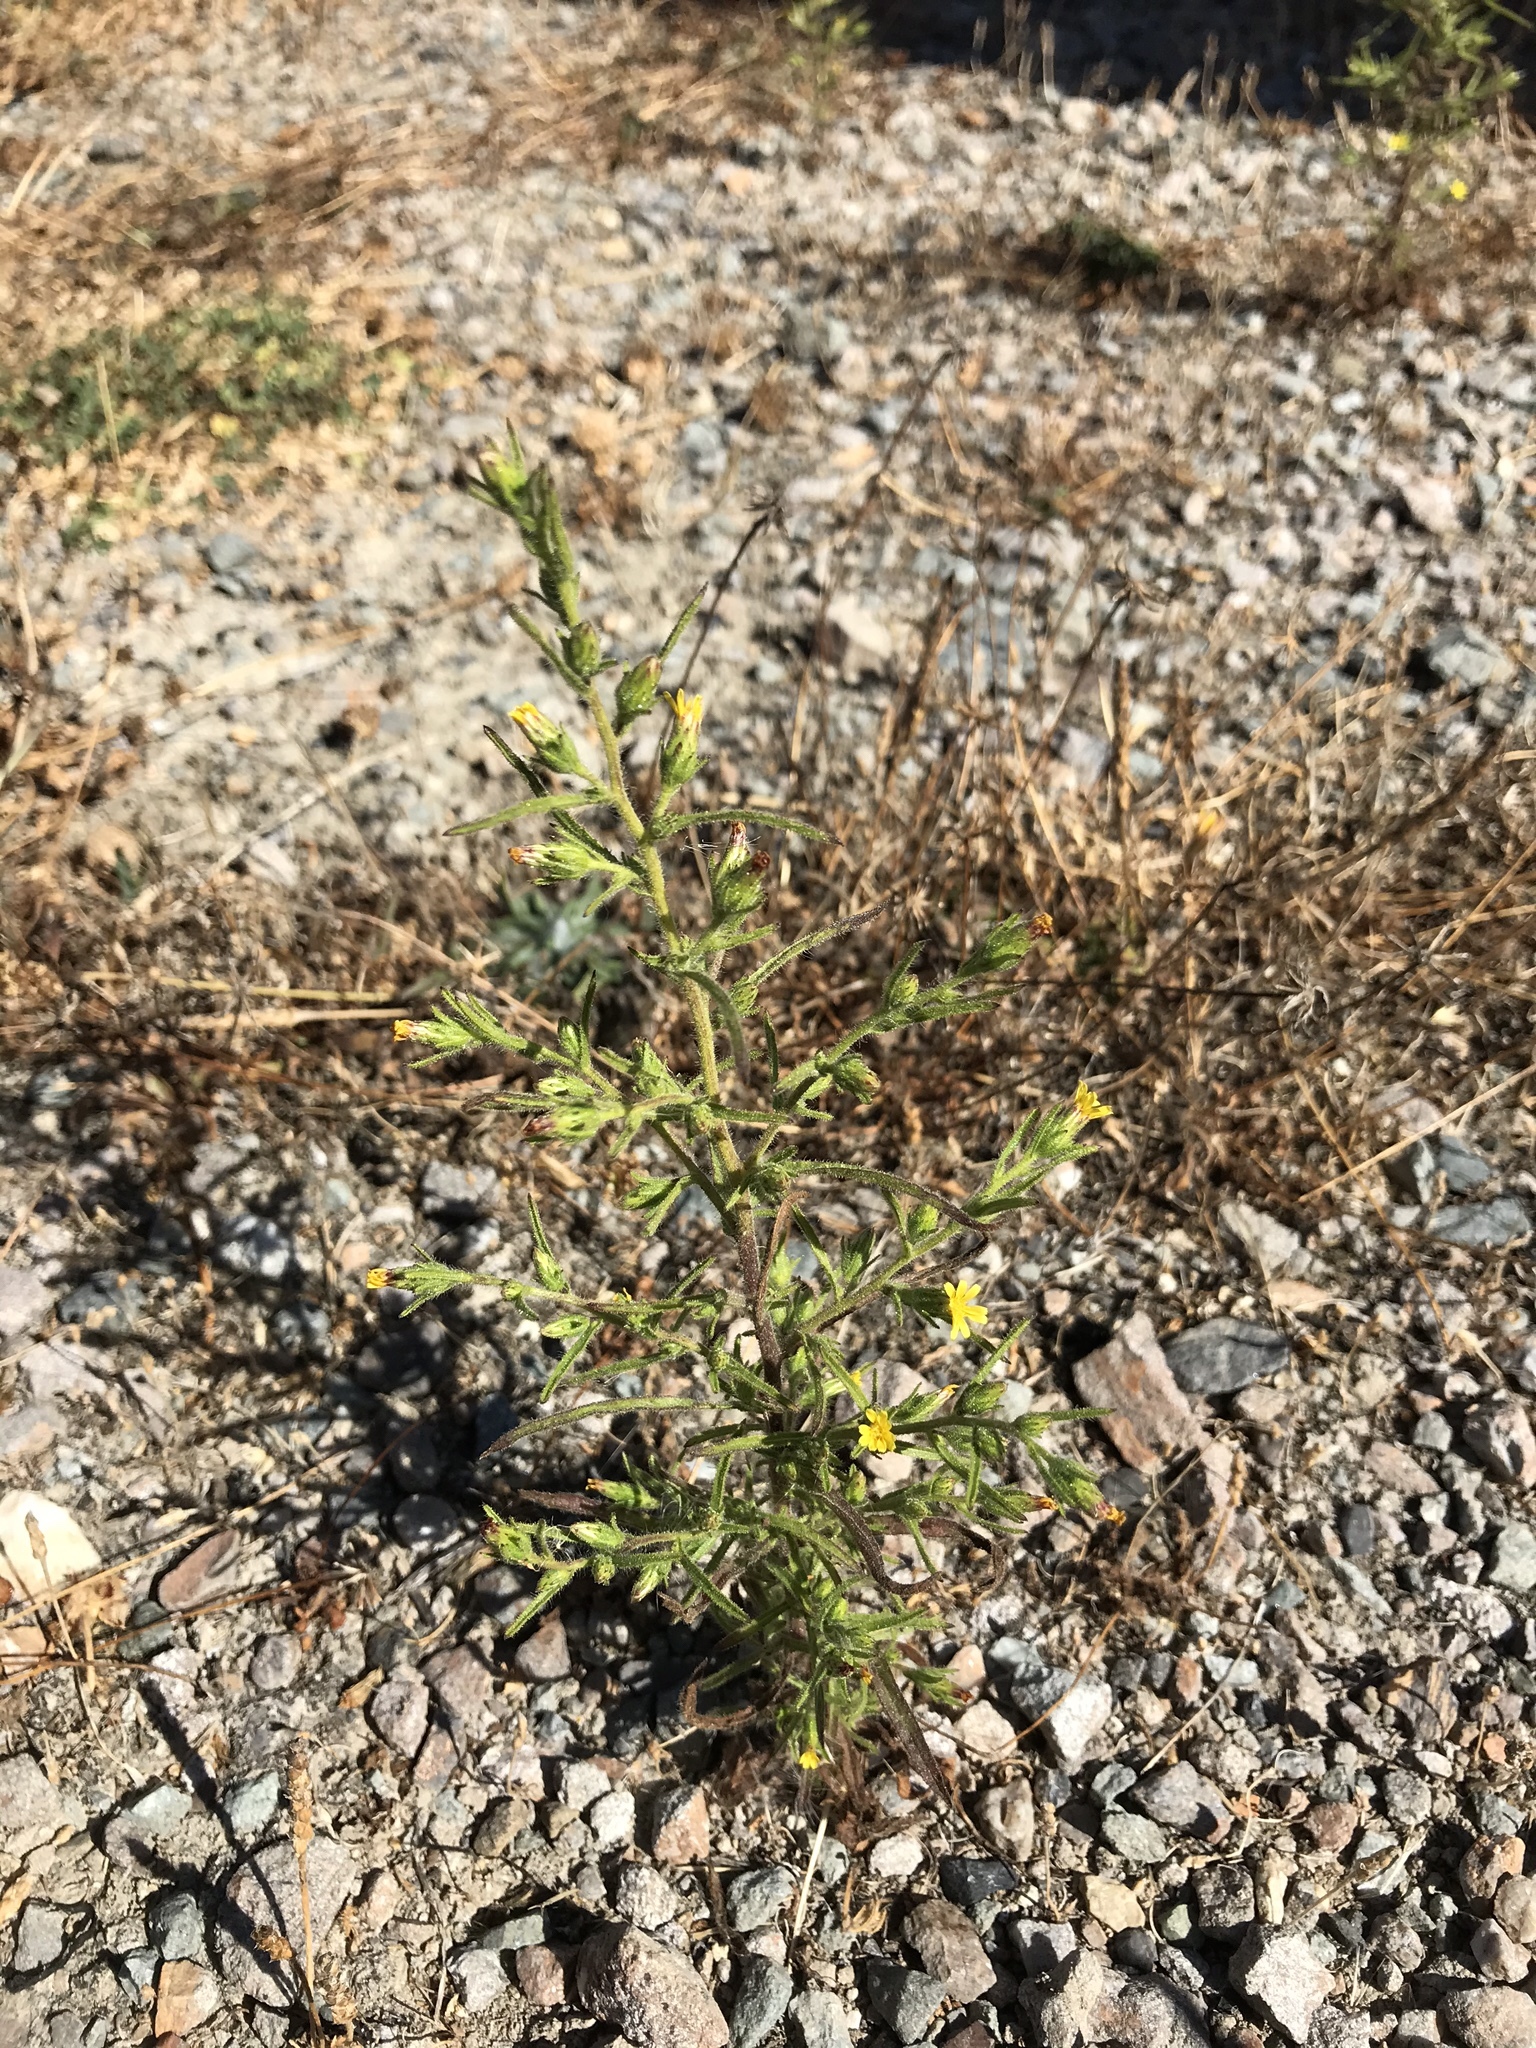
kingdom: Plantae
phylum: Tracheophyta
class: Magnoliopsida
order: Asterales
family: Asteraceae
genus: Dittrichia
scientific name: Dittrichia graveolens
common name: Stinking fleabane
